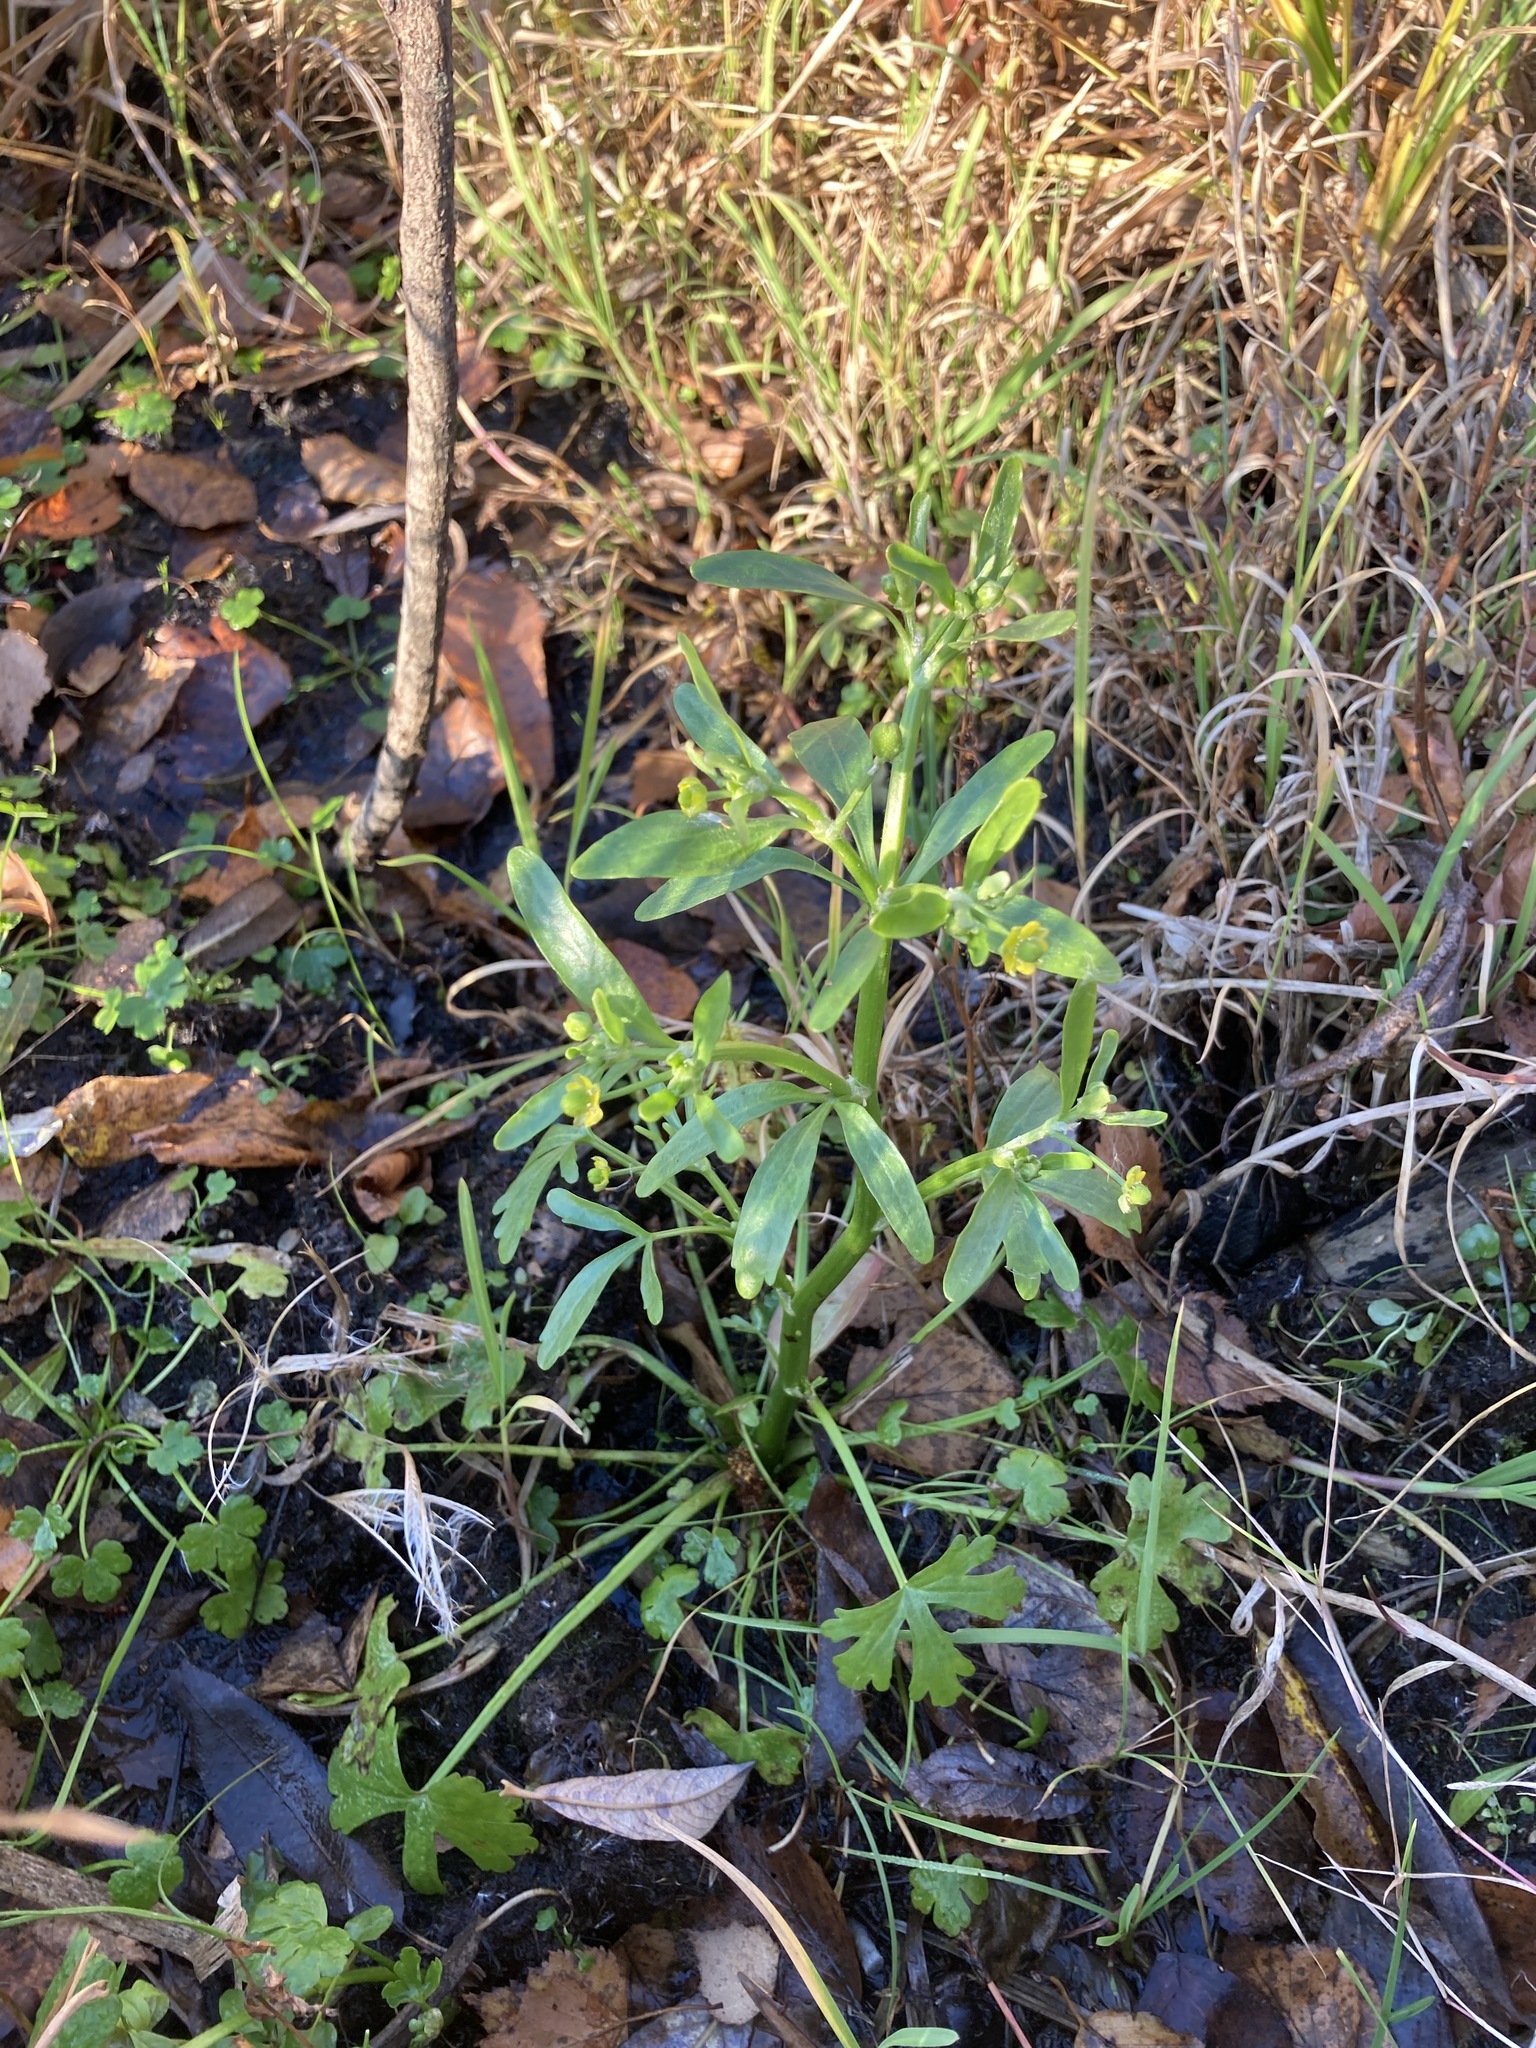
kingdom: Plantae
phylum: Tracheophyta
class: Magnoliopsida
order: Ranunculales
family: Ranunculaceae
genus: Ranunculus
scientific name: Ranunculus sceleratus
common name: Celery-leaved buttercup
